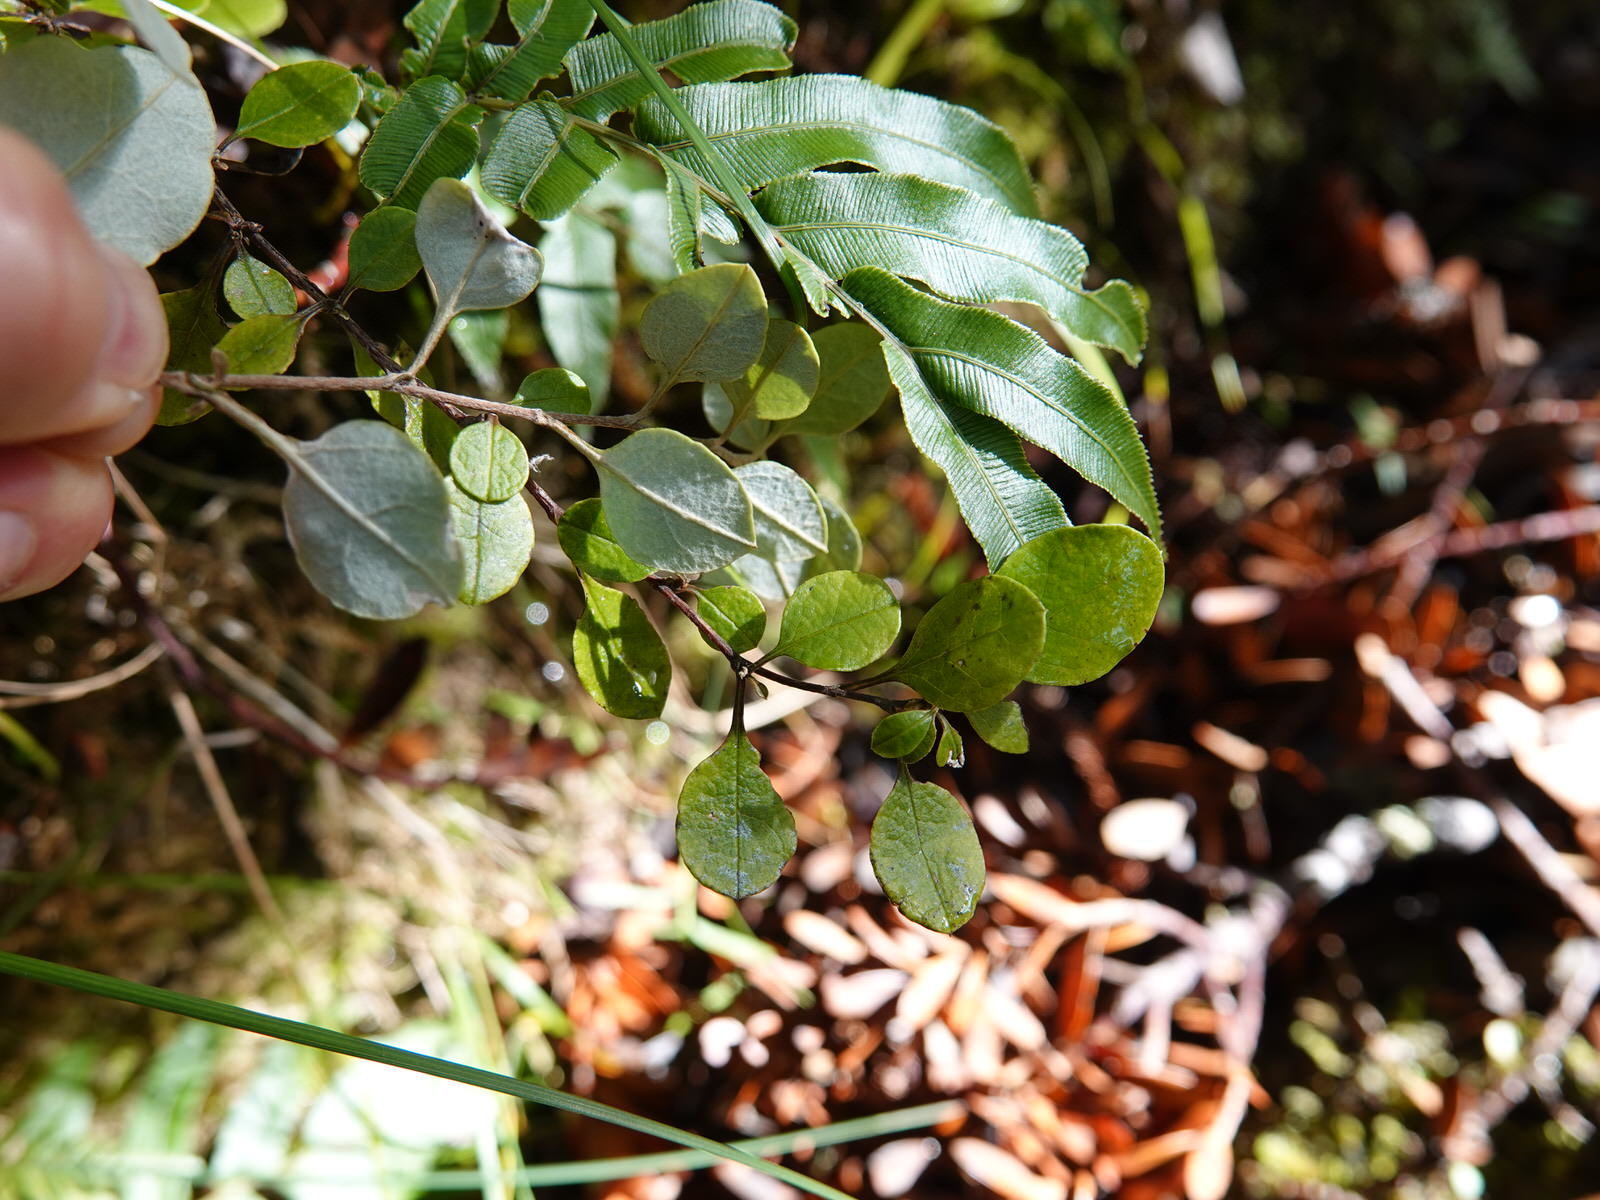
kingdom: Plantae
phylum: Tracheophyta
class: Magnoliopsida
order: Asterales
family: Asteraceae
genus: Ozothamnus
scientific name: Ozothamnus glomeratus
